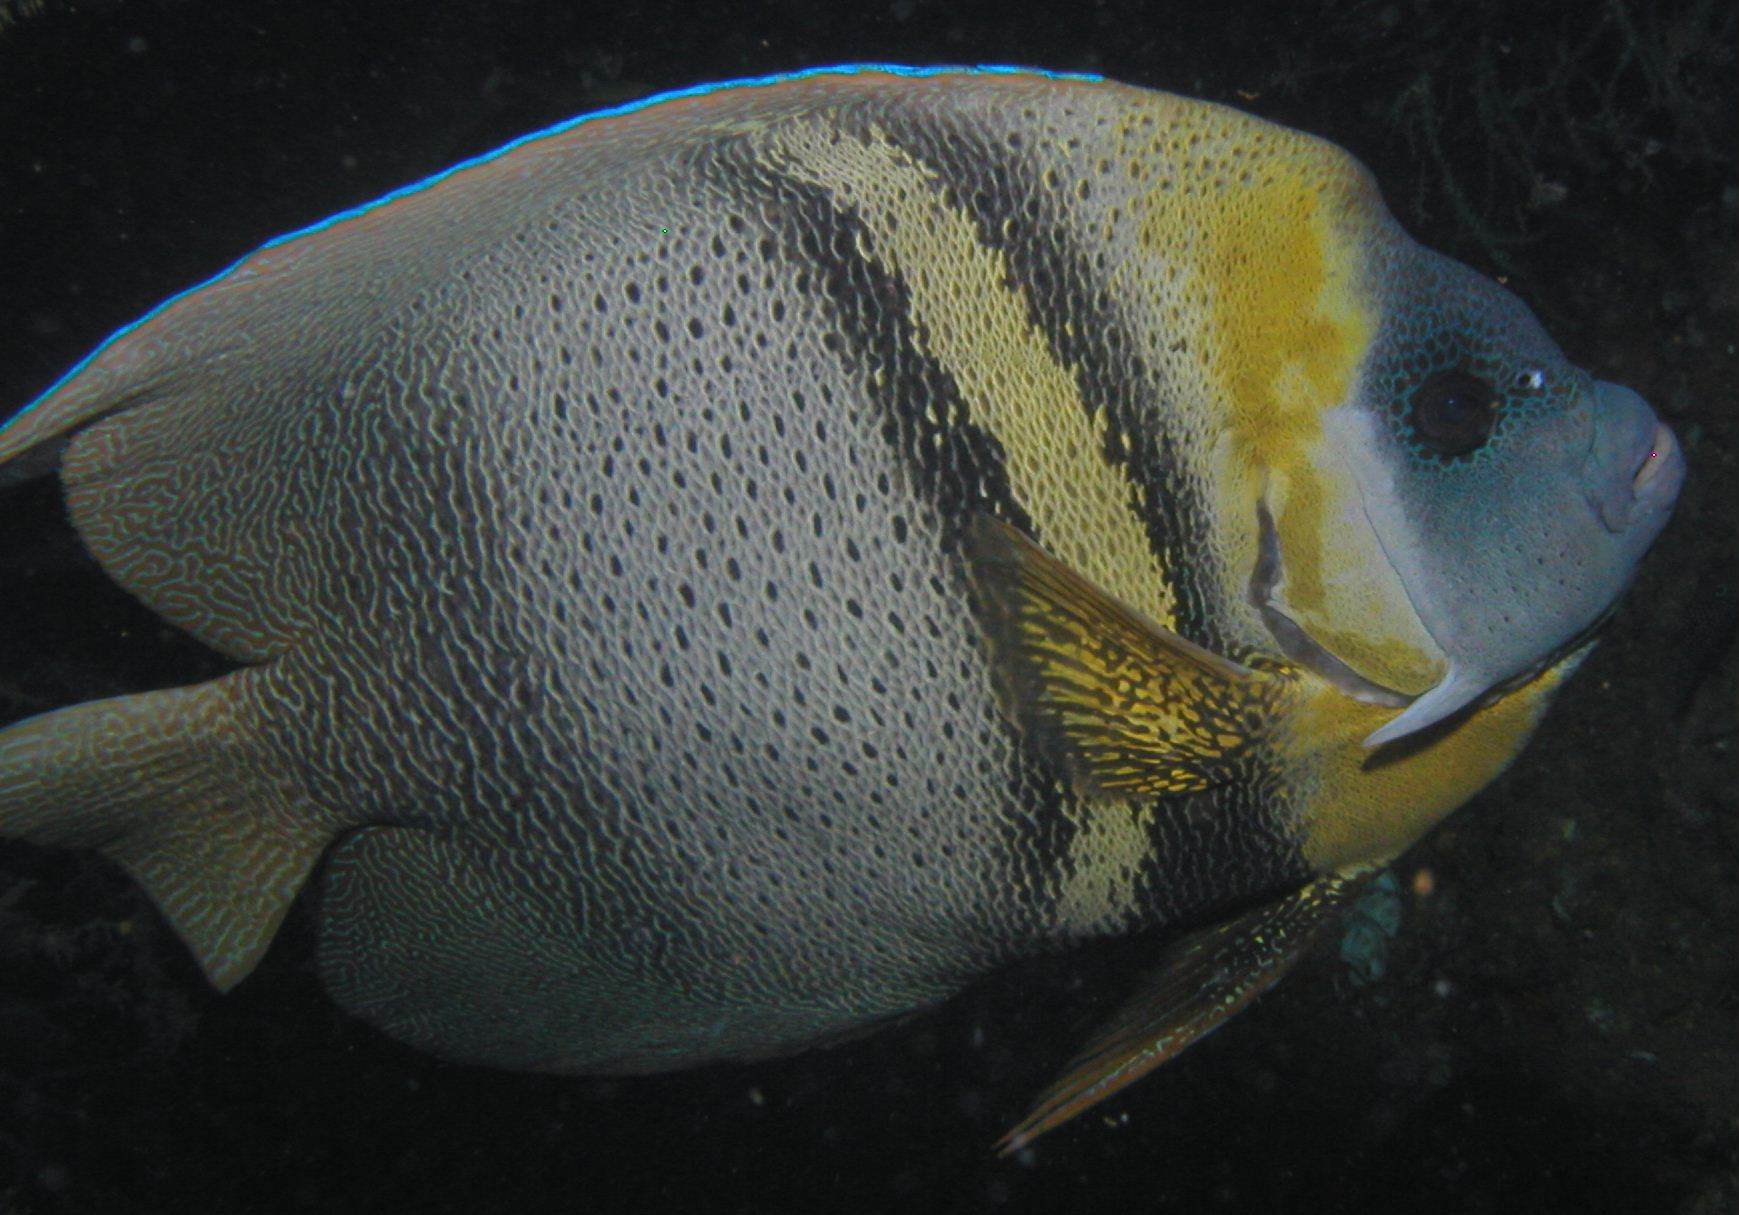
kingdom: Animalia
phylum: Chordata
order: Perciformes
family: Pomacanthidae
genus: Pomacanthus
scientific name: Pomacanthus zonipectus
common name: Cortez angelfish
